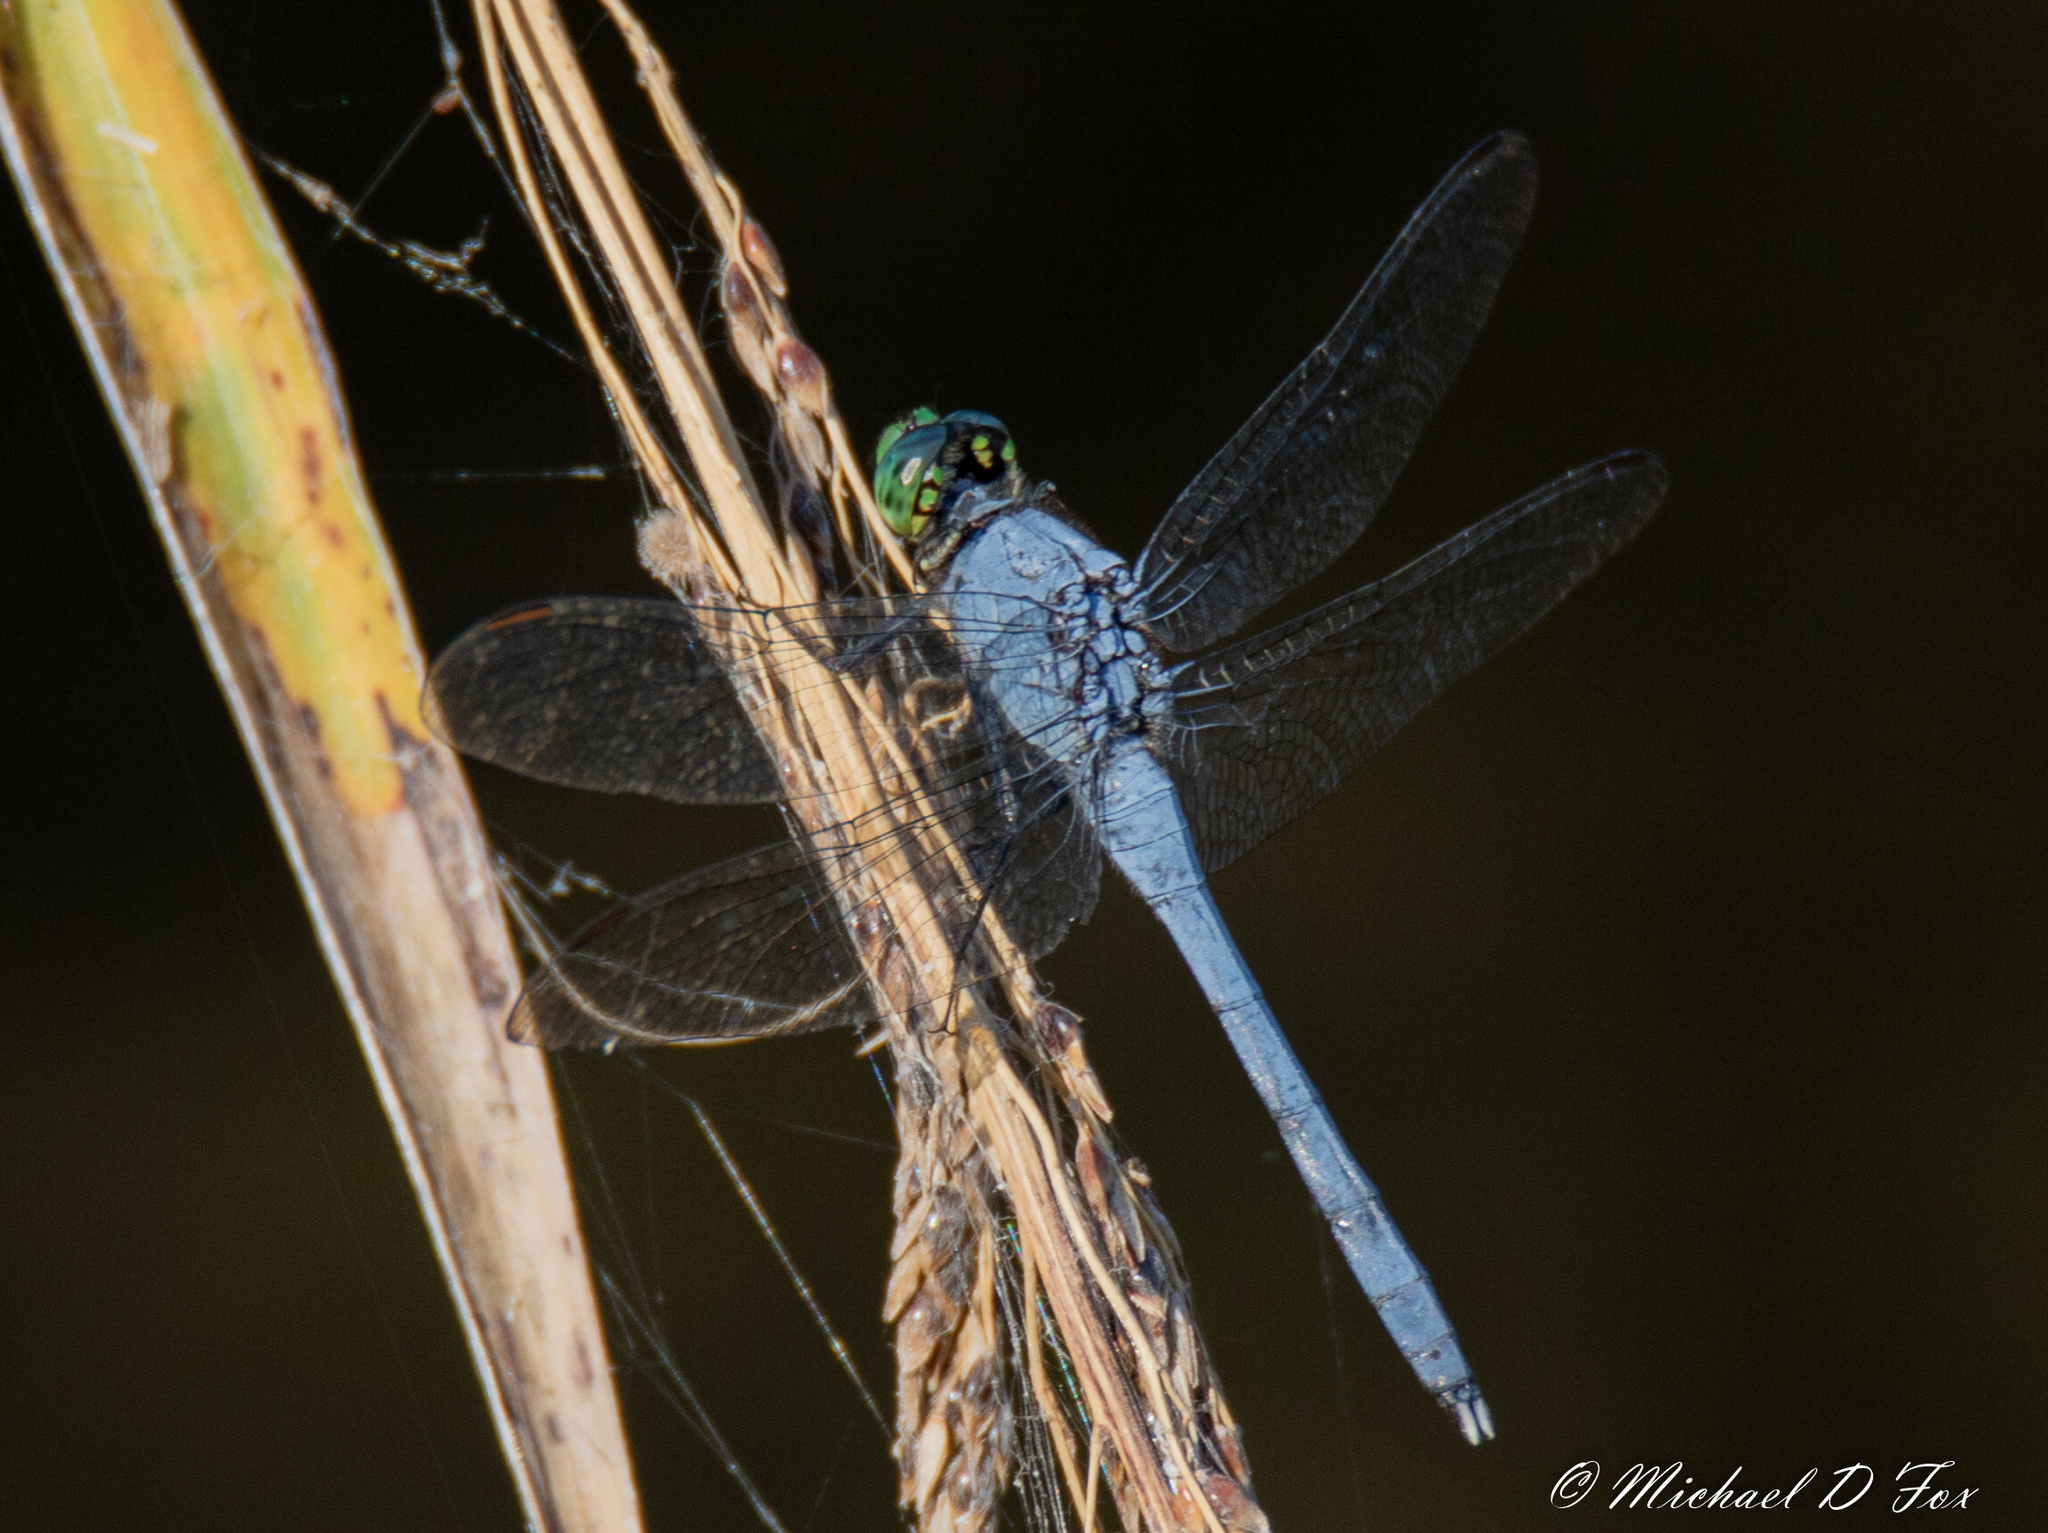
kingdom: Animalia
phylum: Arthropoda
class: Insecta
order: Odonata
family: Libellulidae
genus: Erythemis
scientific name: Erythemis simplicicollis
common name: Eastern pondhawk
